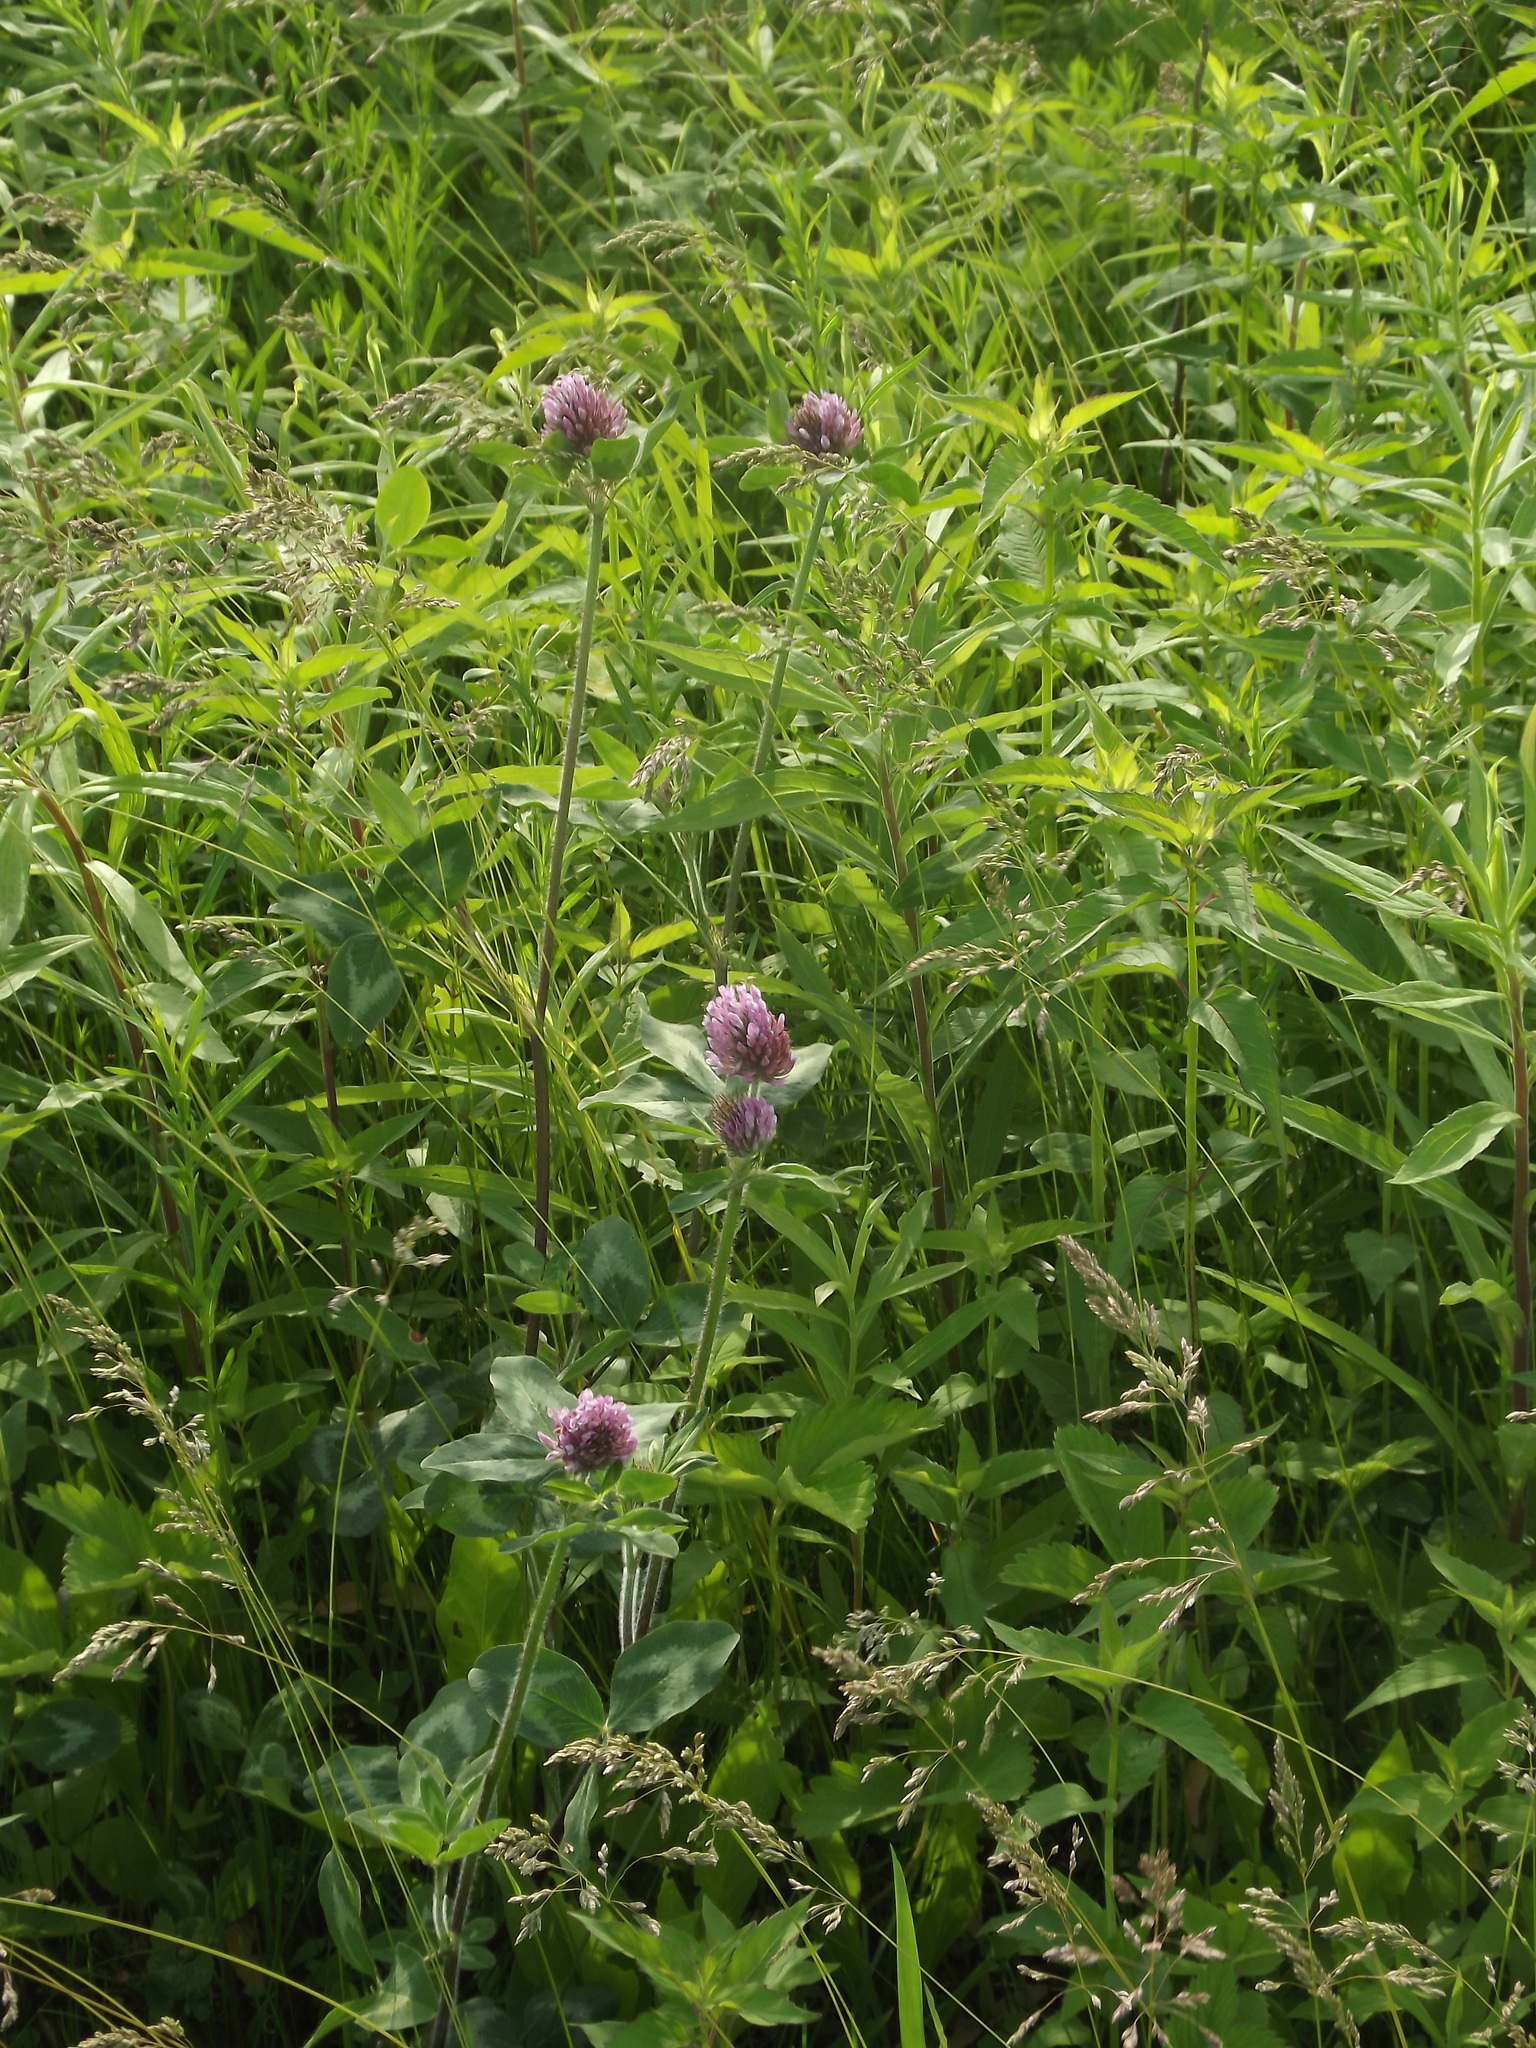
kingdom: Plantae
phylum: Tracheophyta
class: Magnoliopsida
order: Fabales
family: Fabaceae
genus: Trifolium
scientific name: Trifolium pratense
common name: Red clover
